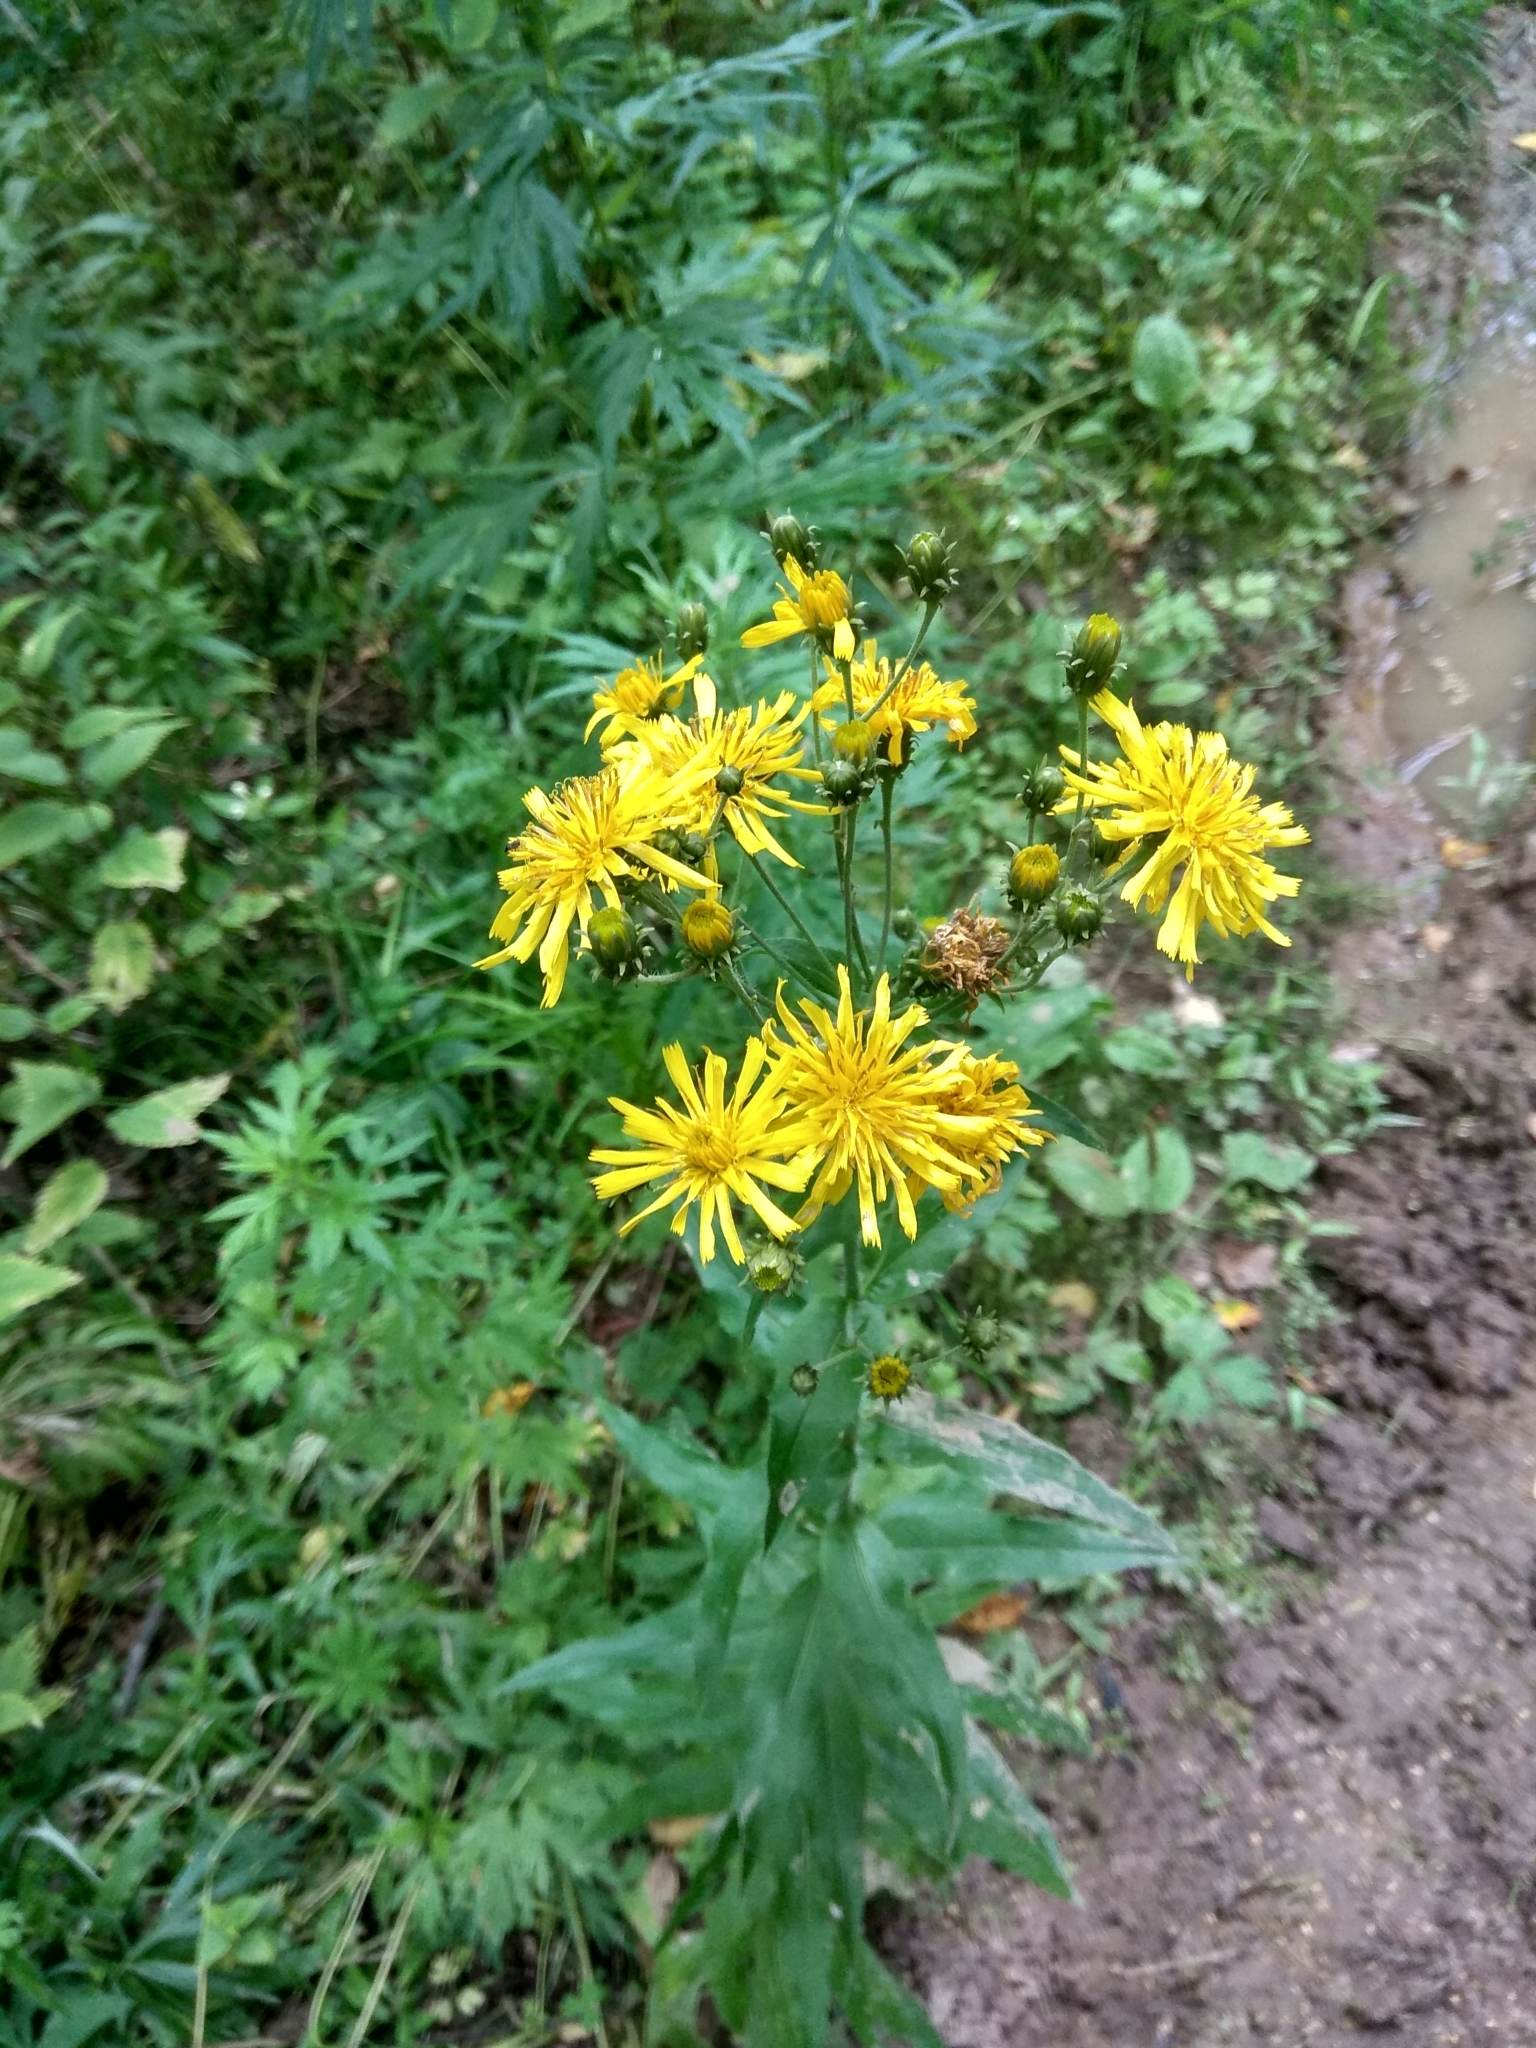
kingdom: Plantae
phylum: Tracheophyta
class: Magnoliopsida
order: Asterales
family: Asteraceae
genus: Hieracium
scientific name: Hieracium umbellatum
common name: Northern hawkweed
